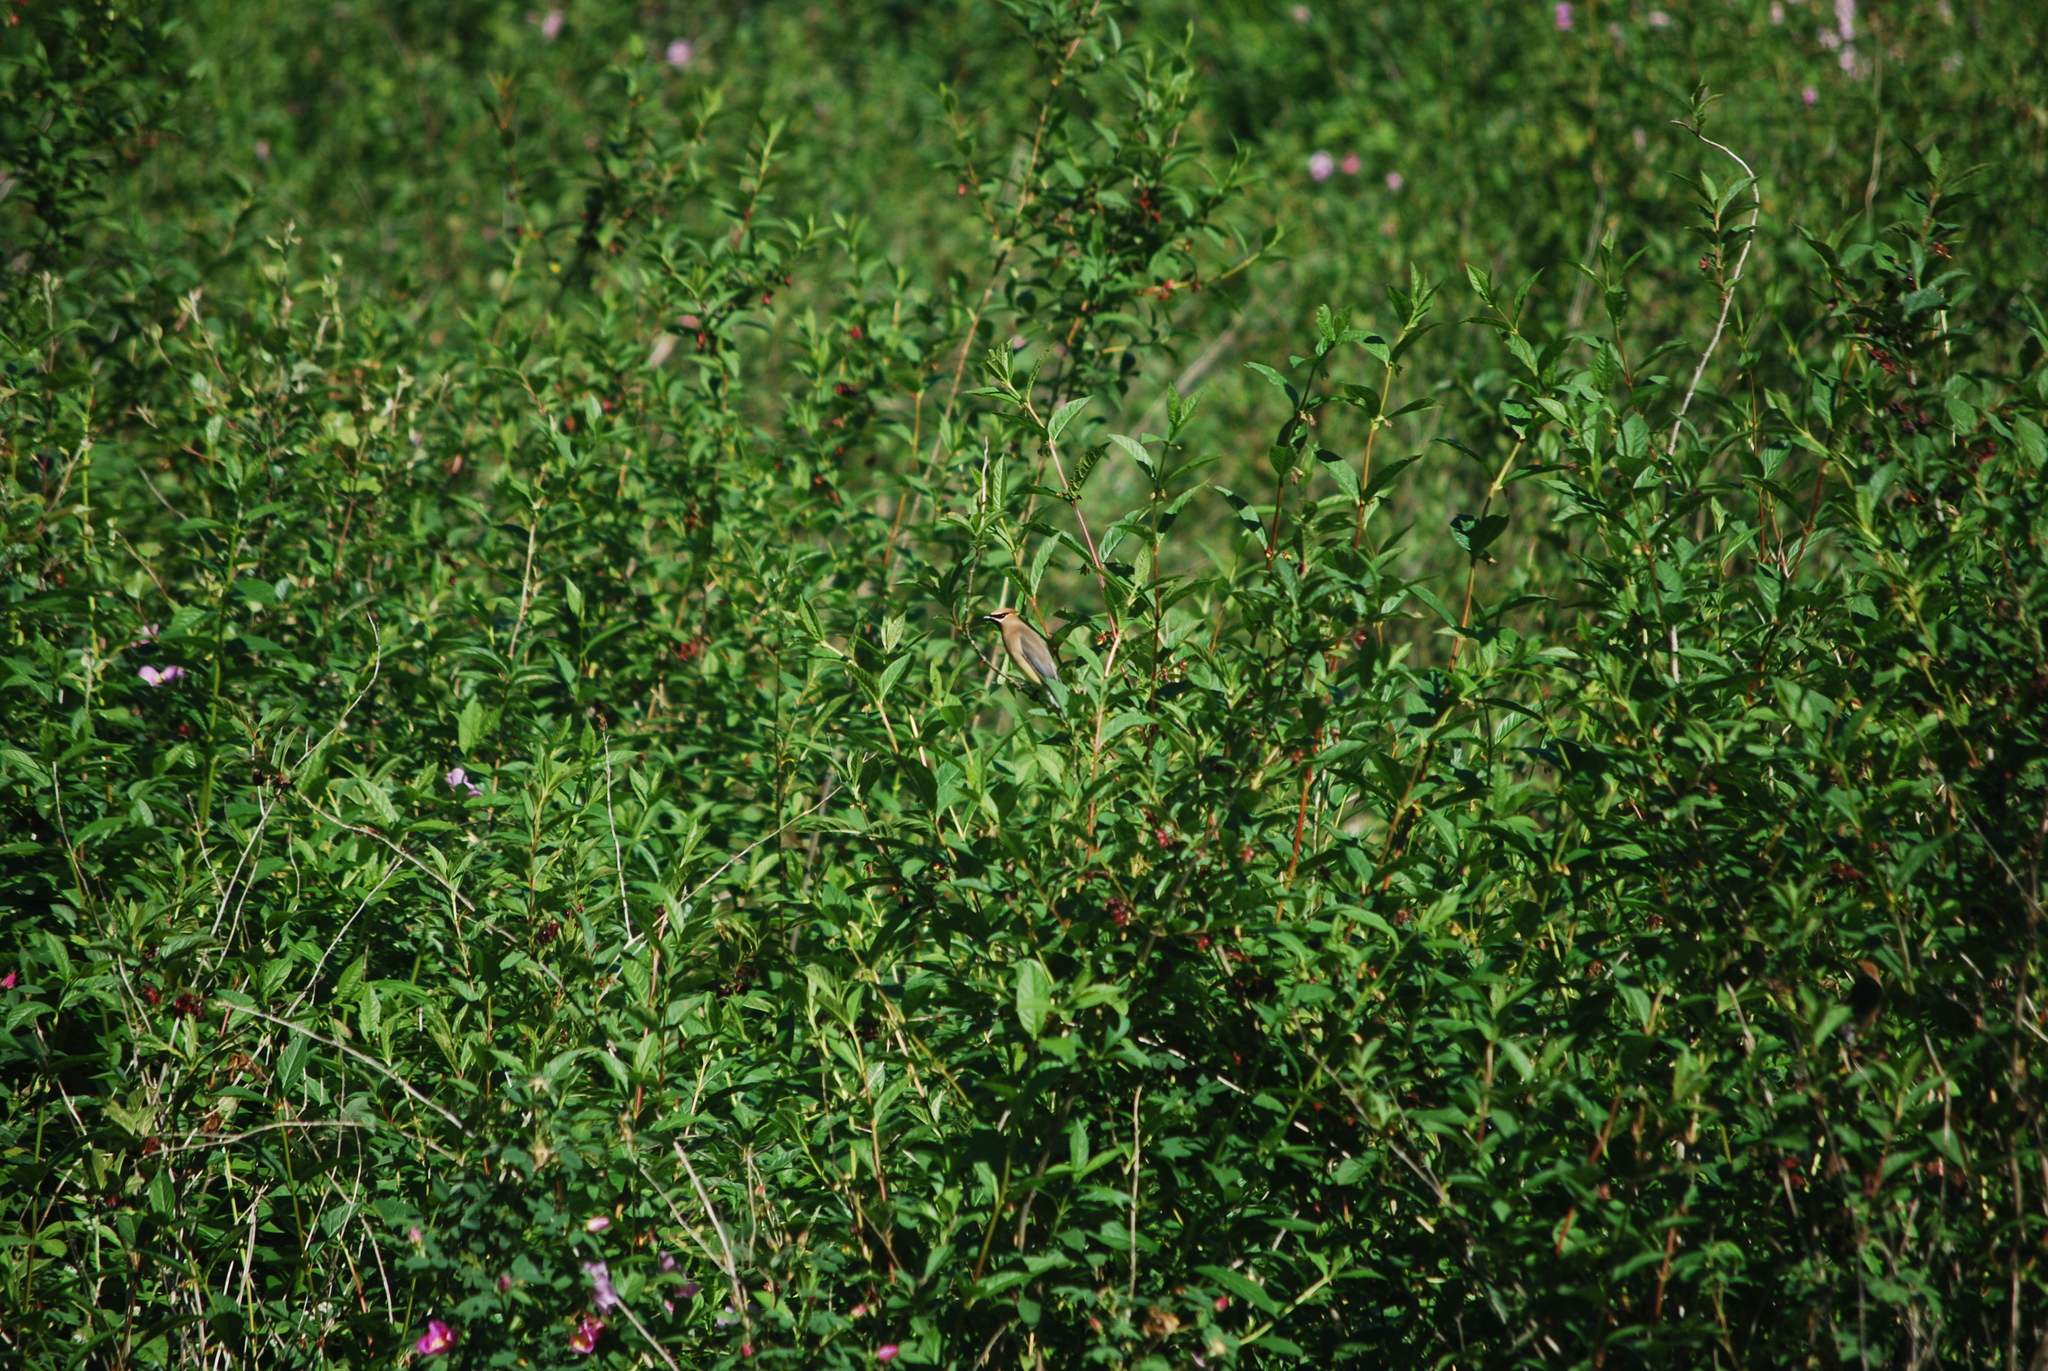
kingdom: Animalia
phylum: Chordata
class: Aves
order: Passeriformes
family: Bombycillidae
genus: Bombycilla
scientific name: Bombycilla cedrorum
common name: Cedar waxwing
